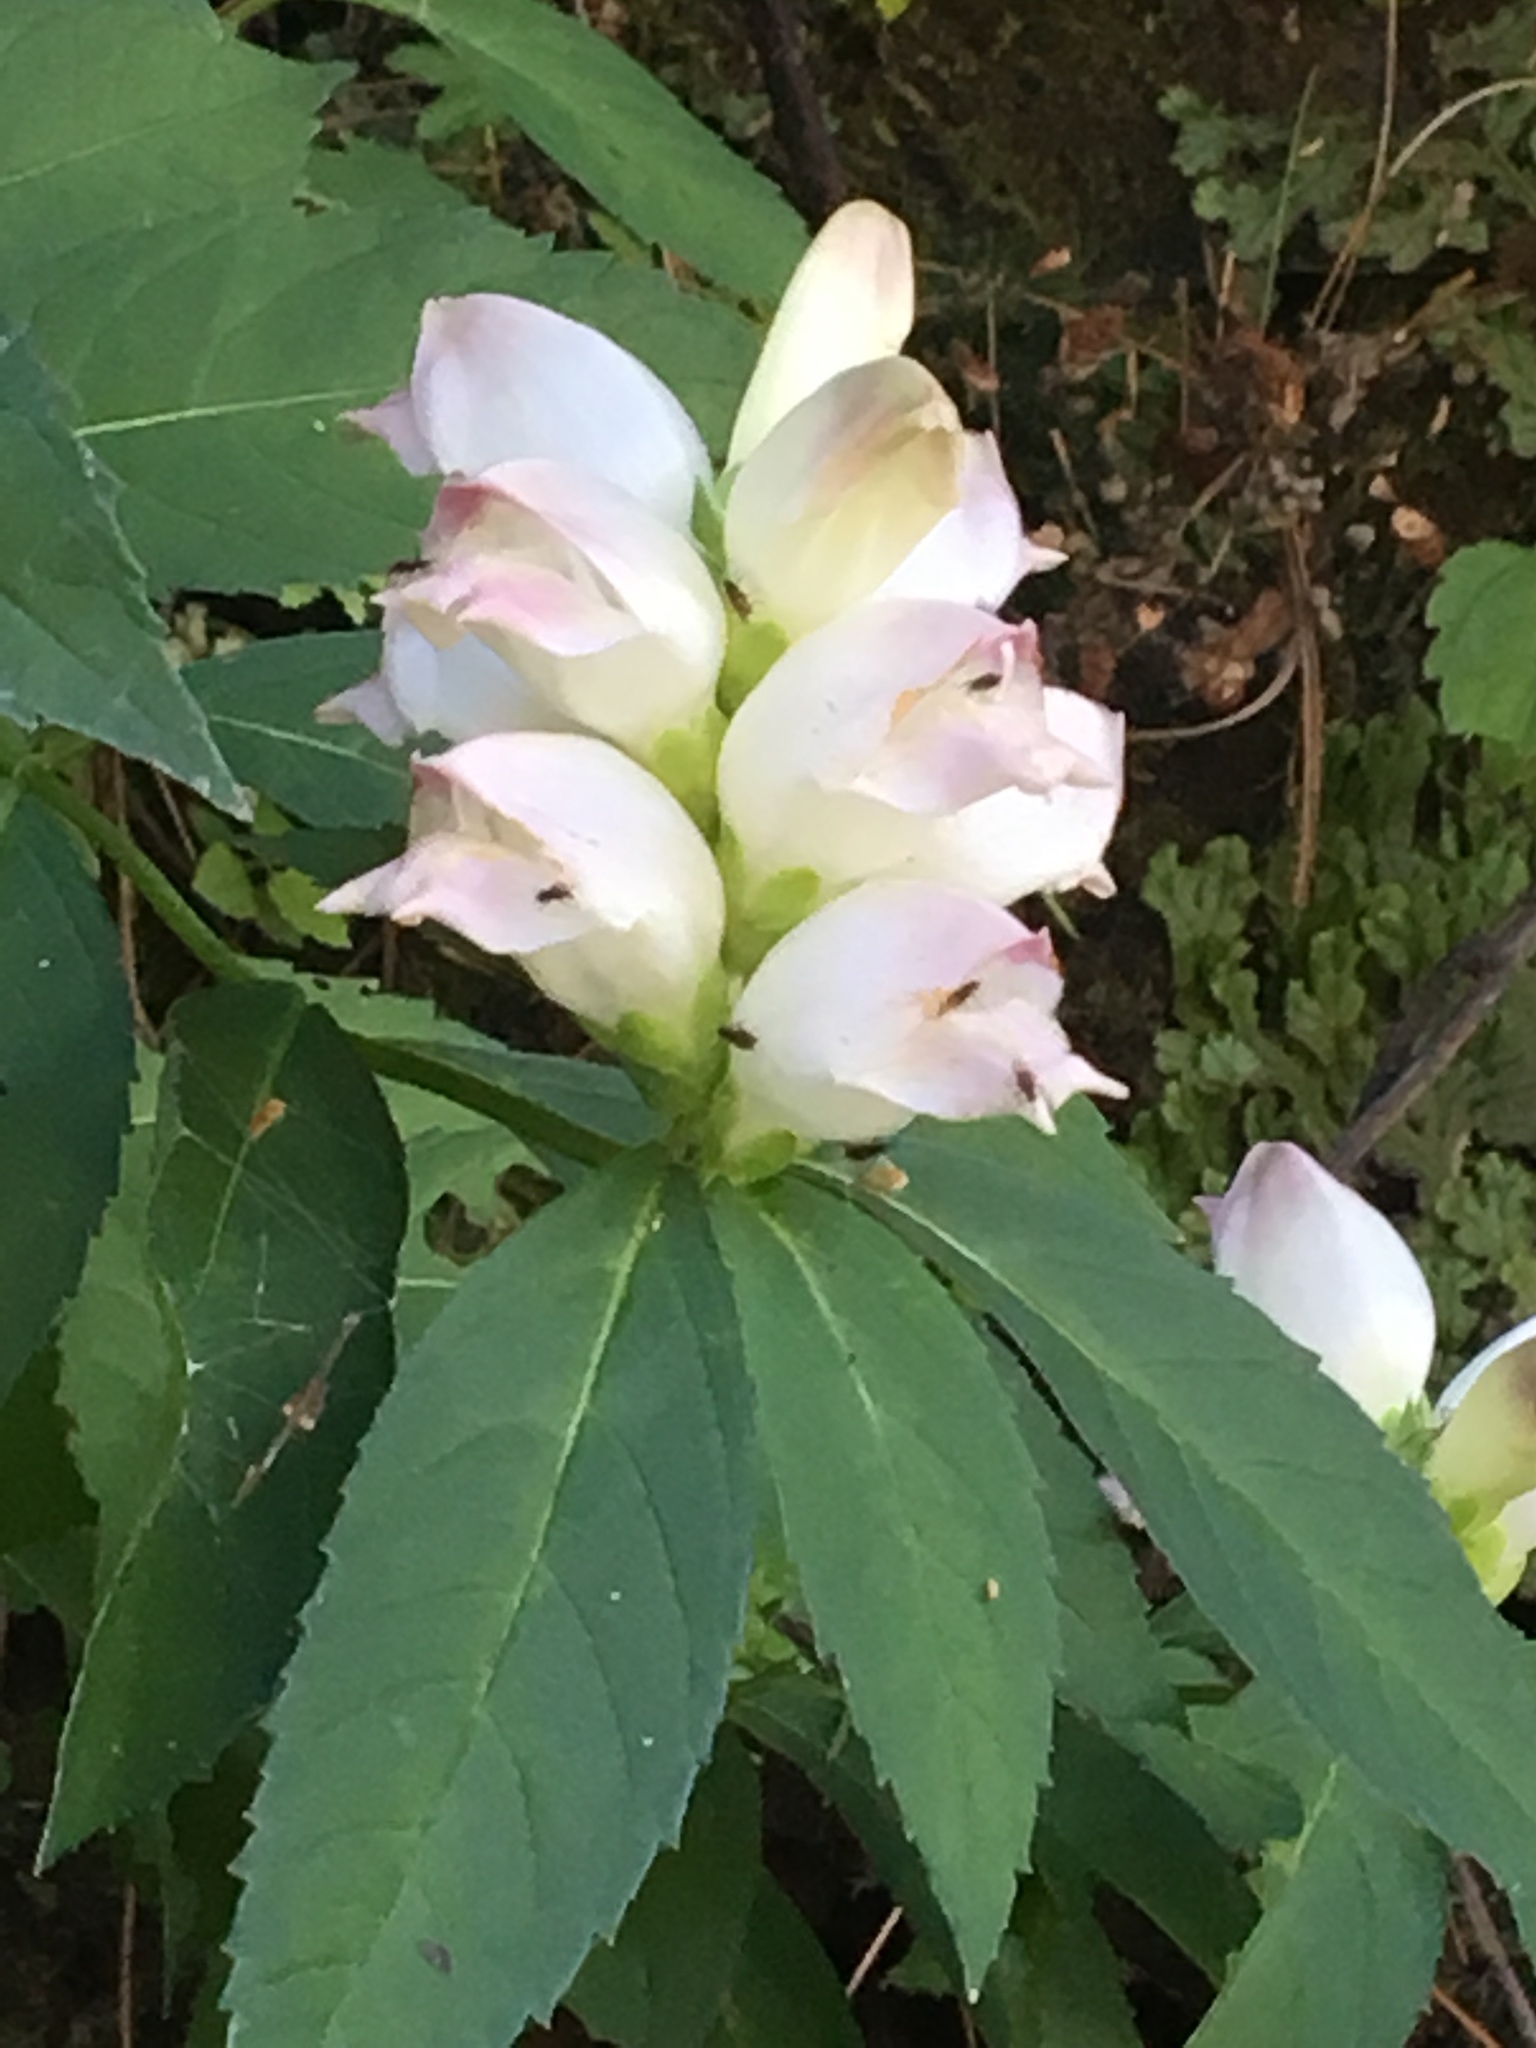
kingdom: Plantae
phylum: Tracheophyta
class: Magnoliopsida
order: Lamiales
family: Plantaginaceae
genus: Chelone
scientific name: Chelone glabra
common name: Snakehead
